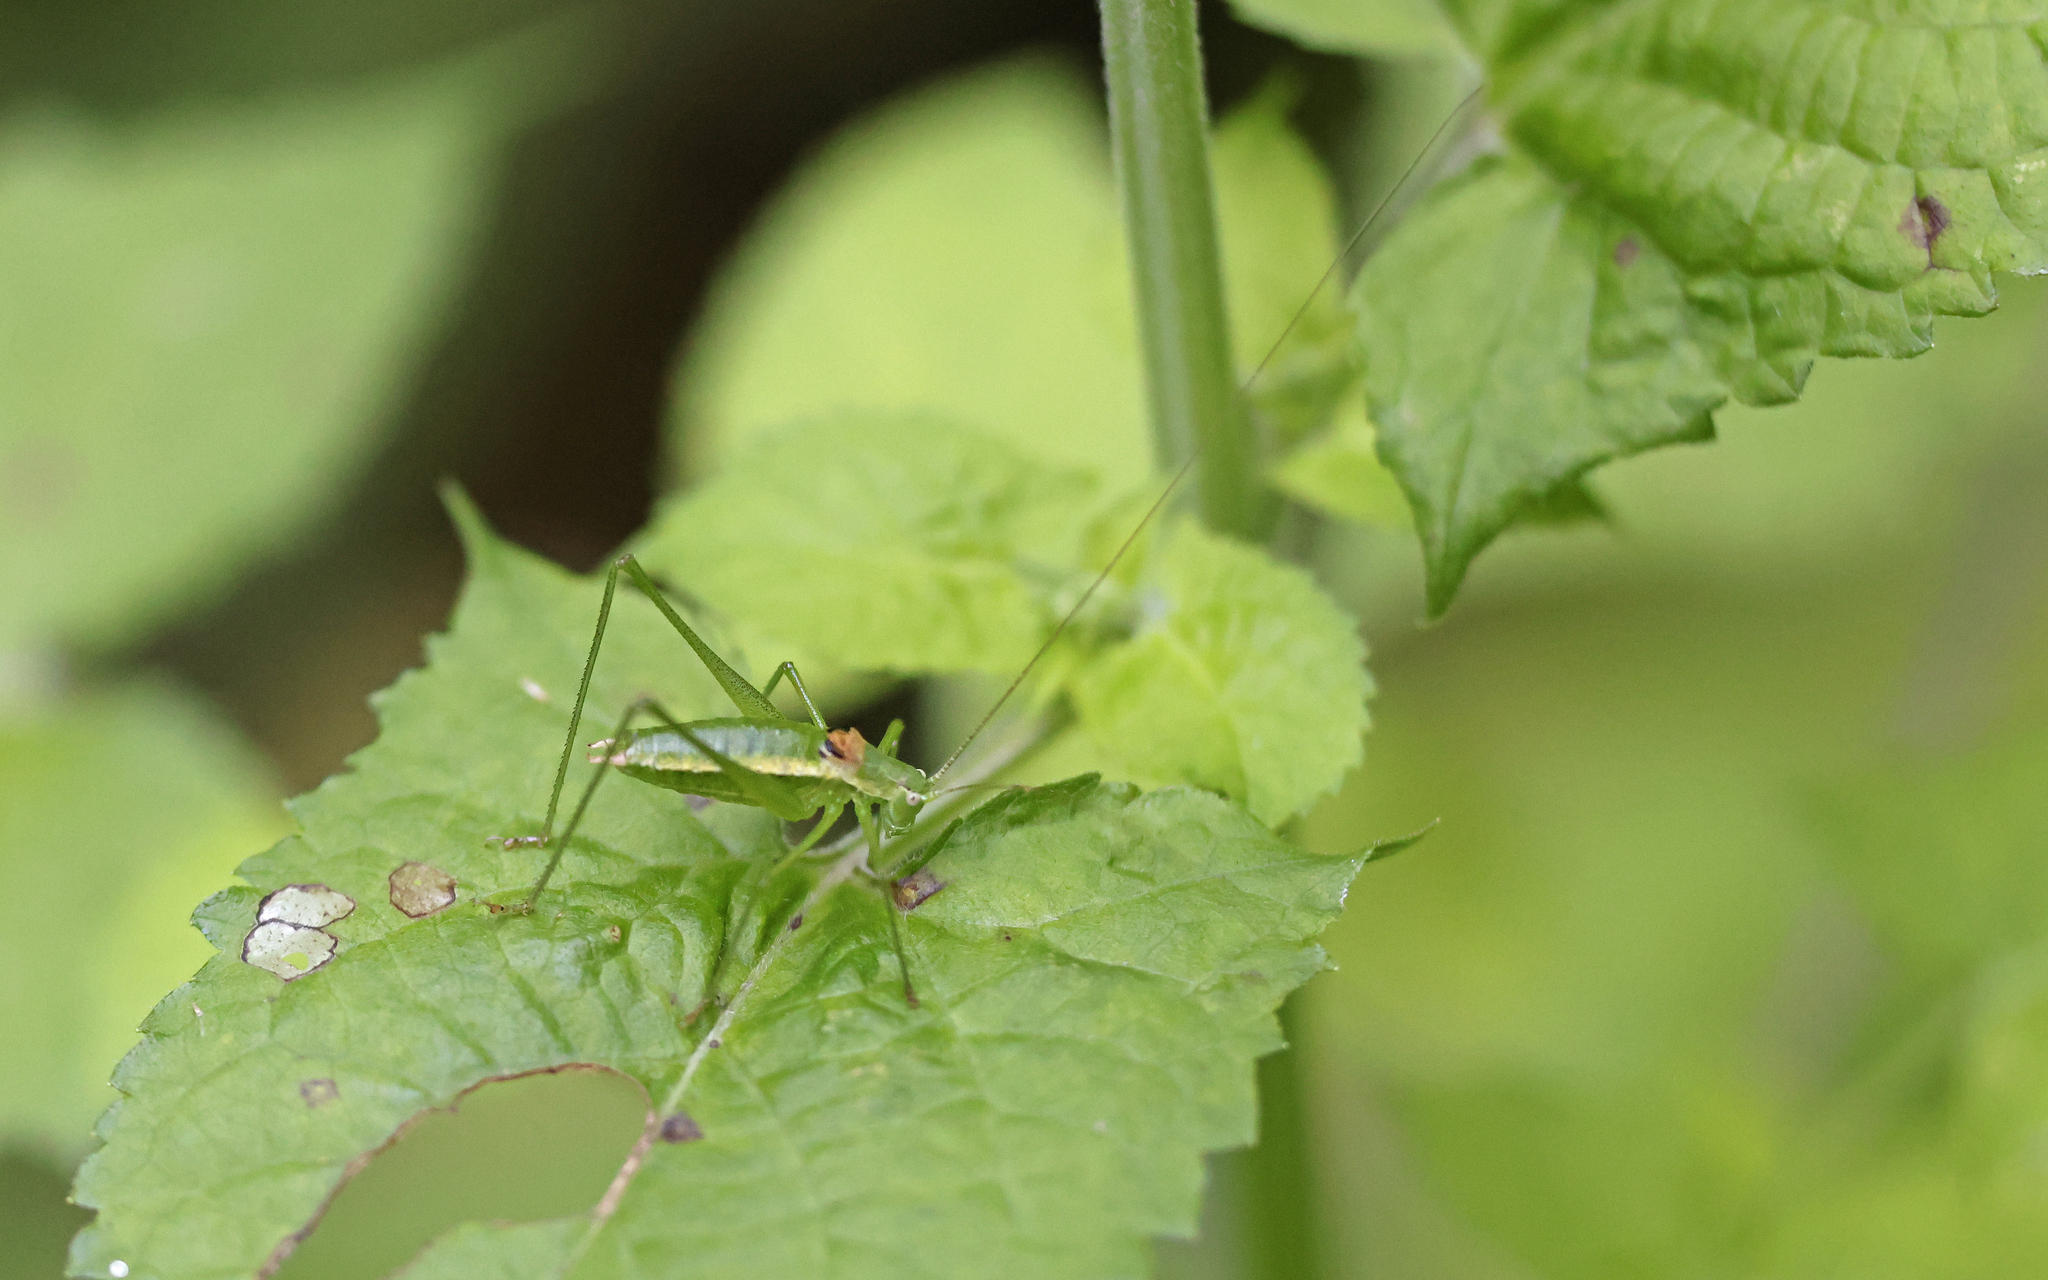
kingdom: Animalia
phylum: Arthropoda
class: Insecta
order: Orthoptera
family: Tettigoniidae
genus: Leptophyes
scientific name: Leptophyes boscii
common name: Balkan speckled bush-cricket
